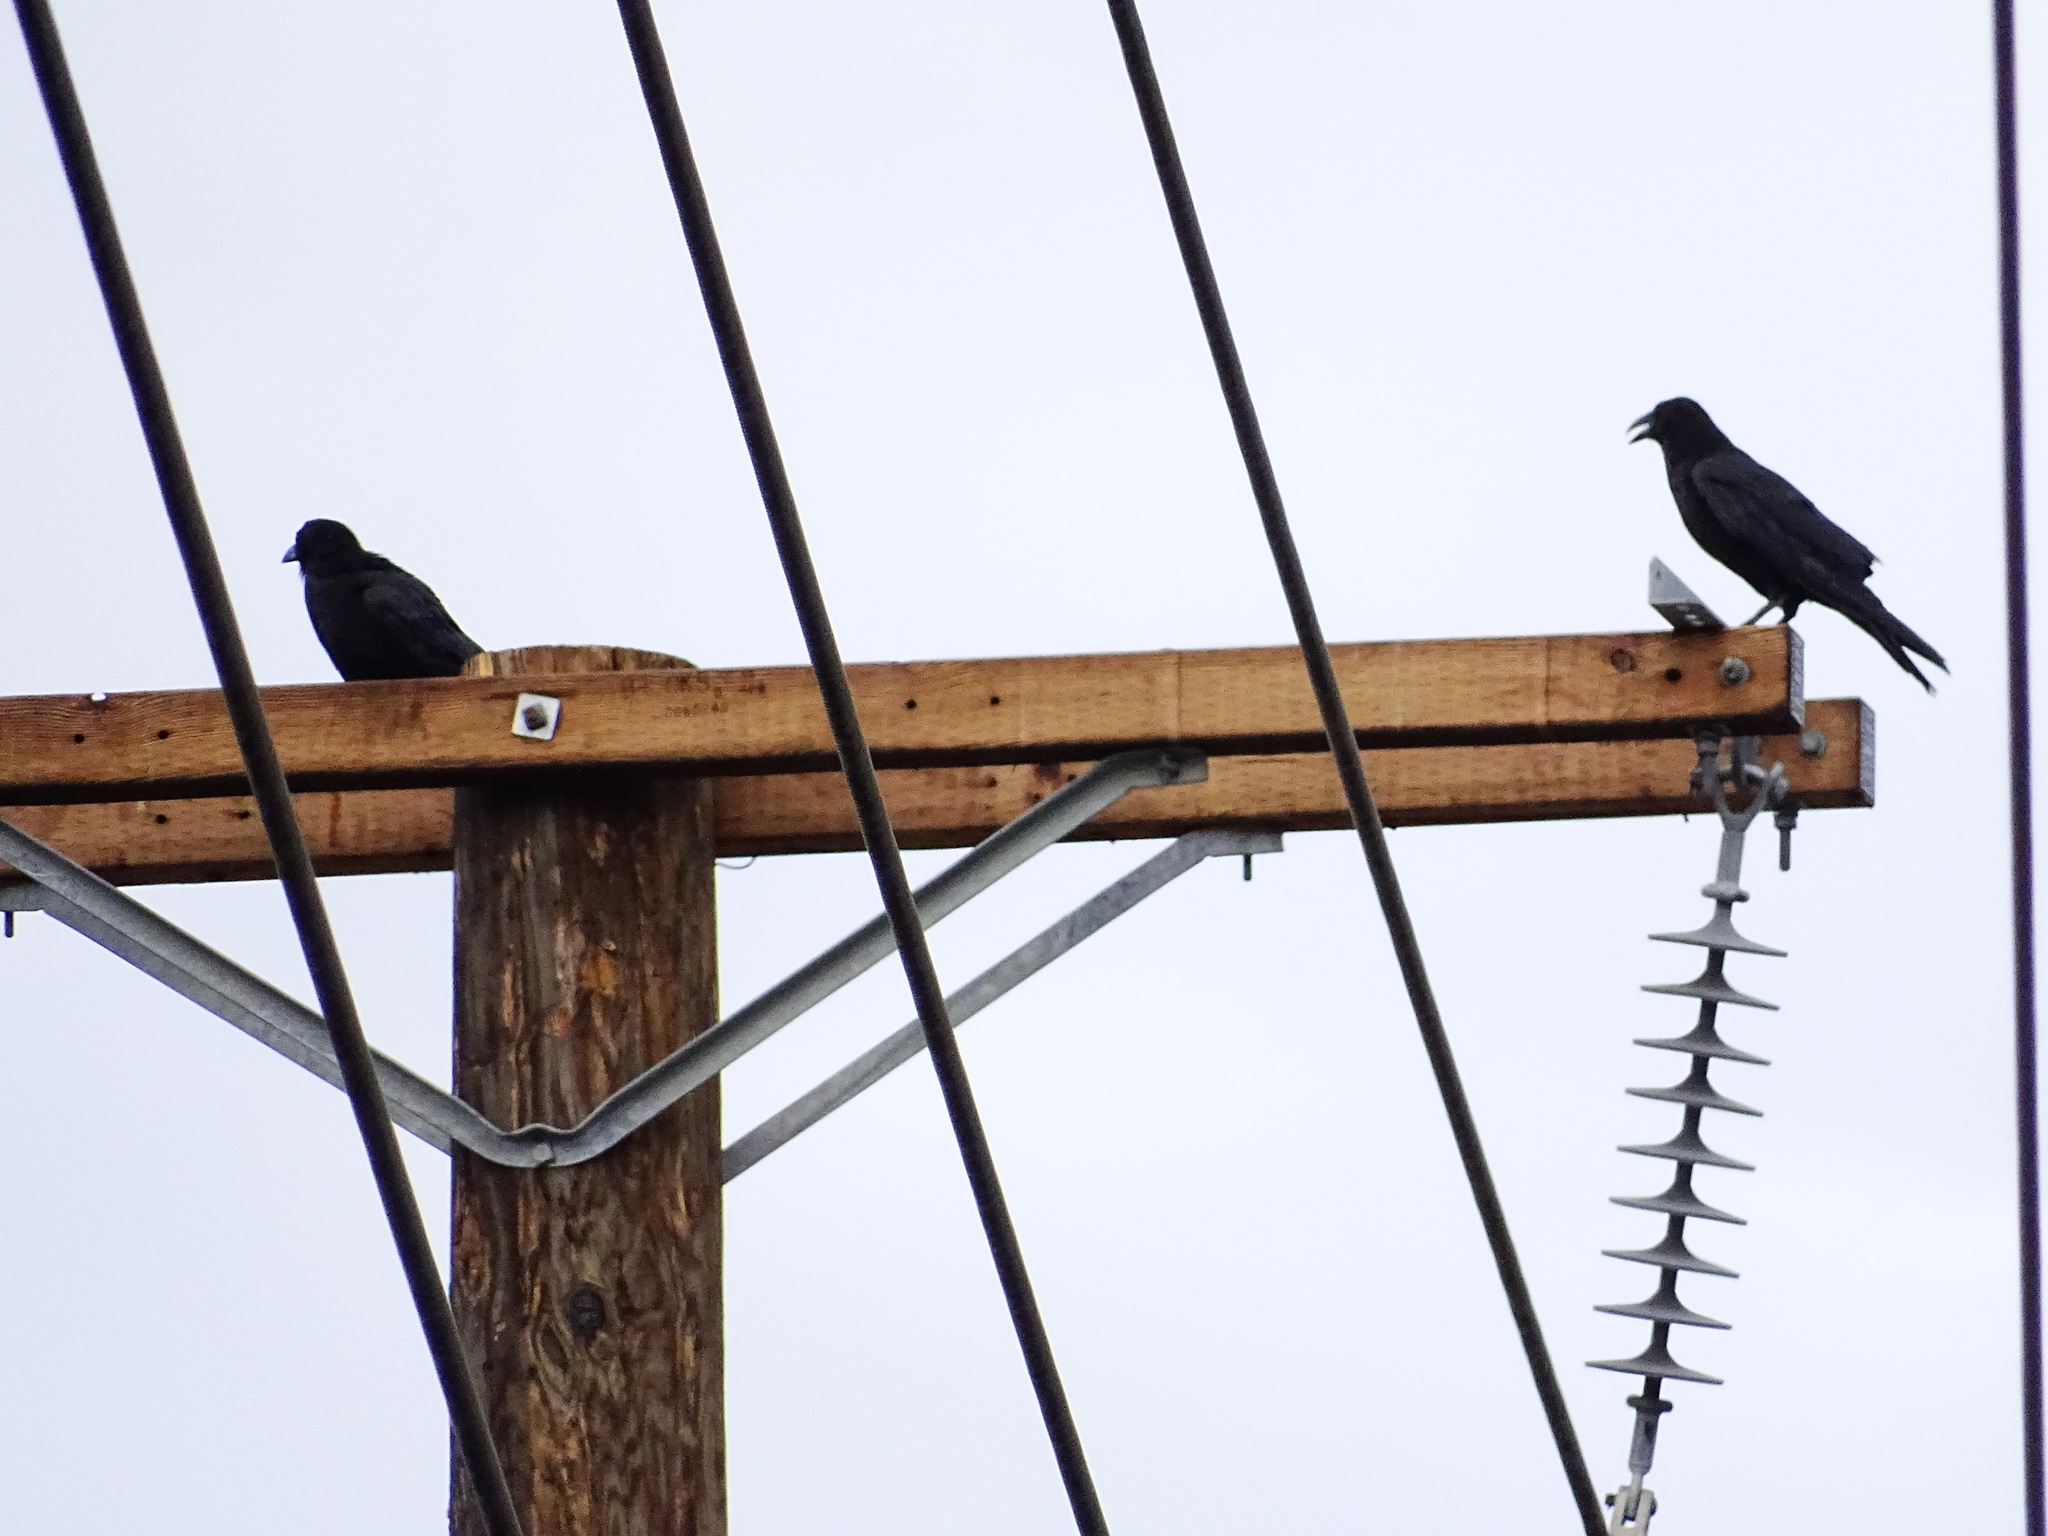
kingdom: Animalia
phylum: Chordata
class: Aves
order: Passeriformes
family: Corvidae
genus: Corvus
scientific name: Corvus brachyrhynchos
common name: American crow
